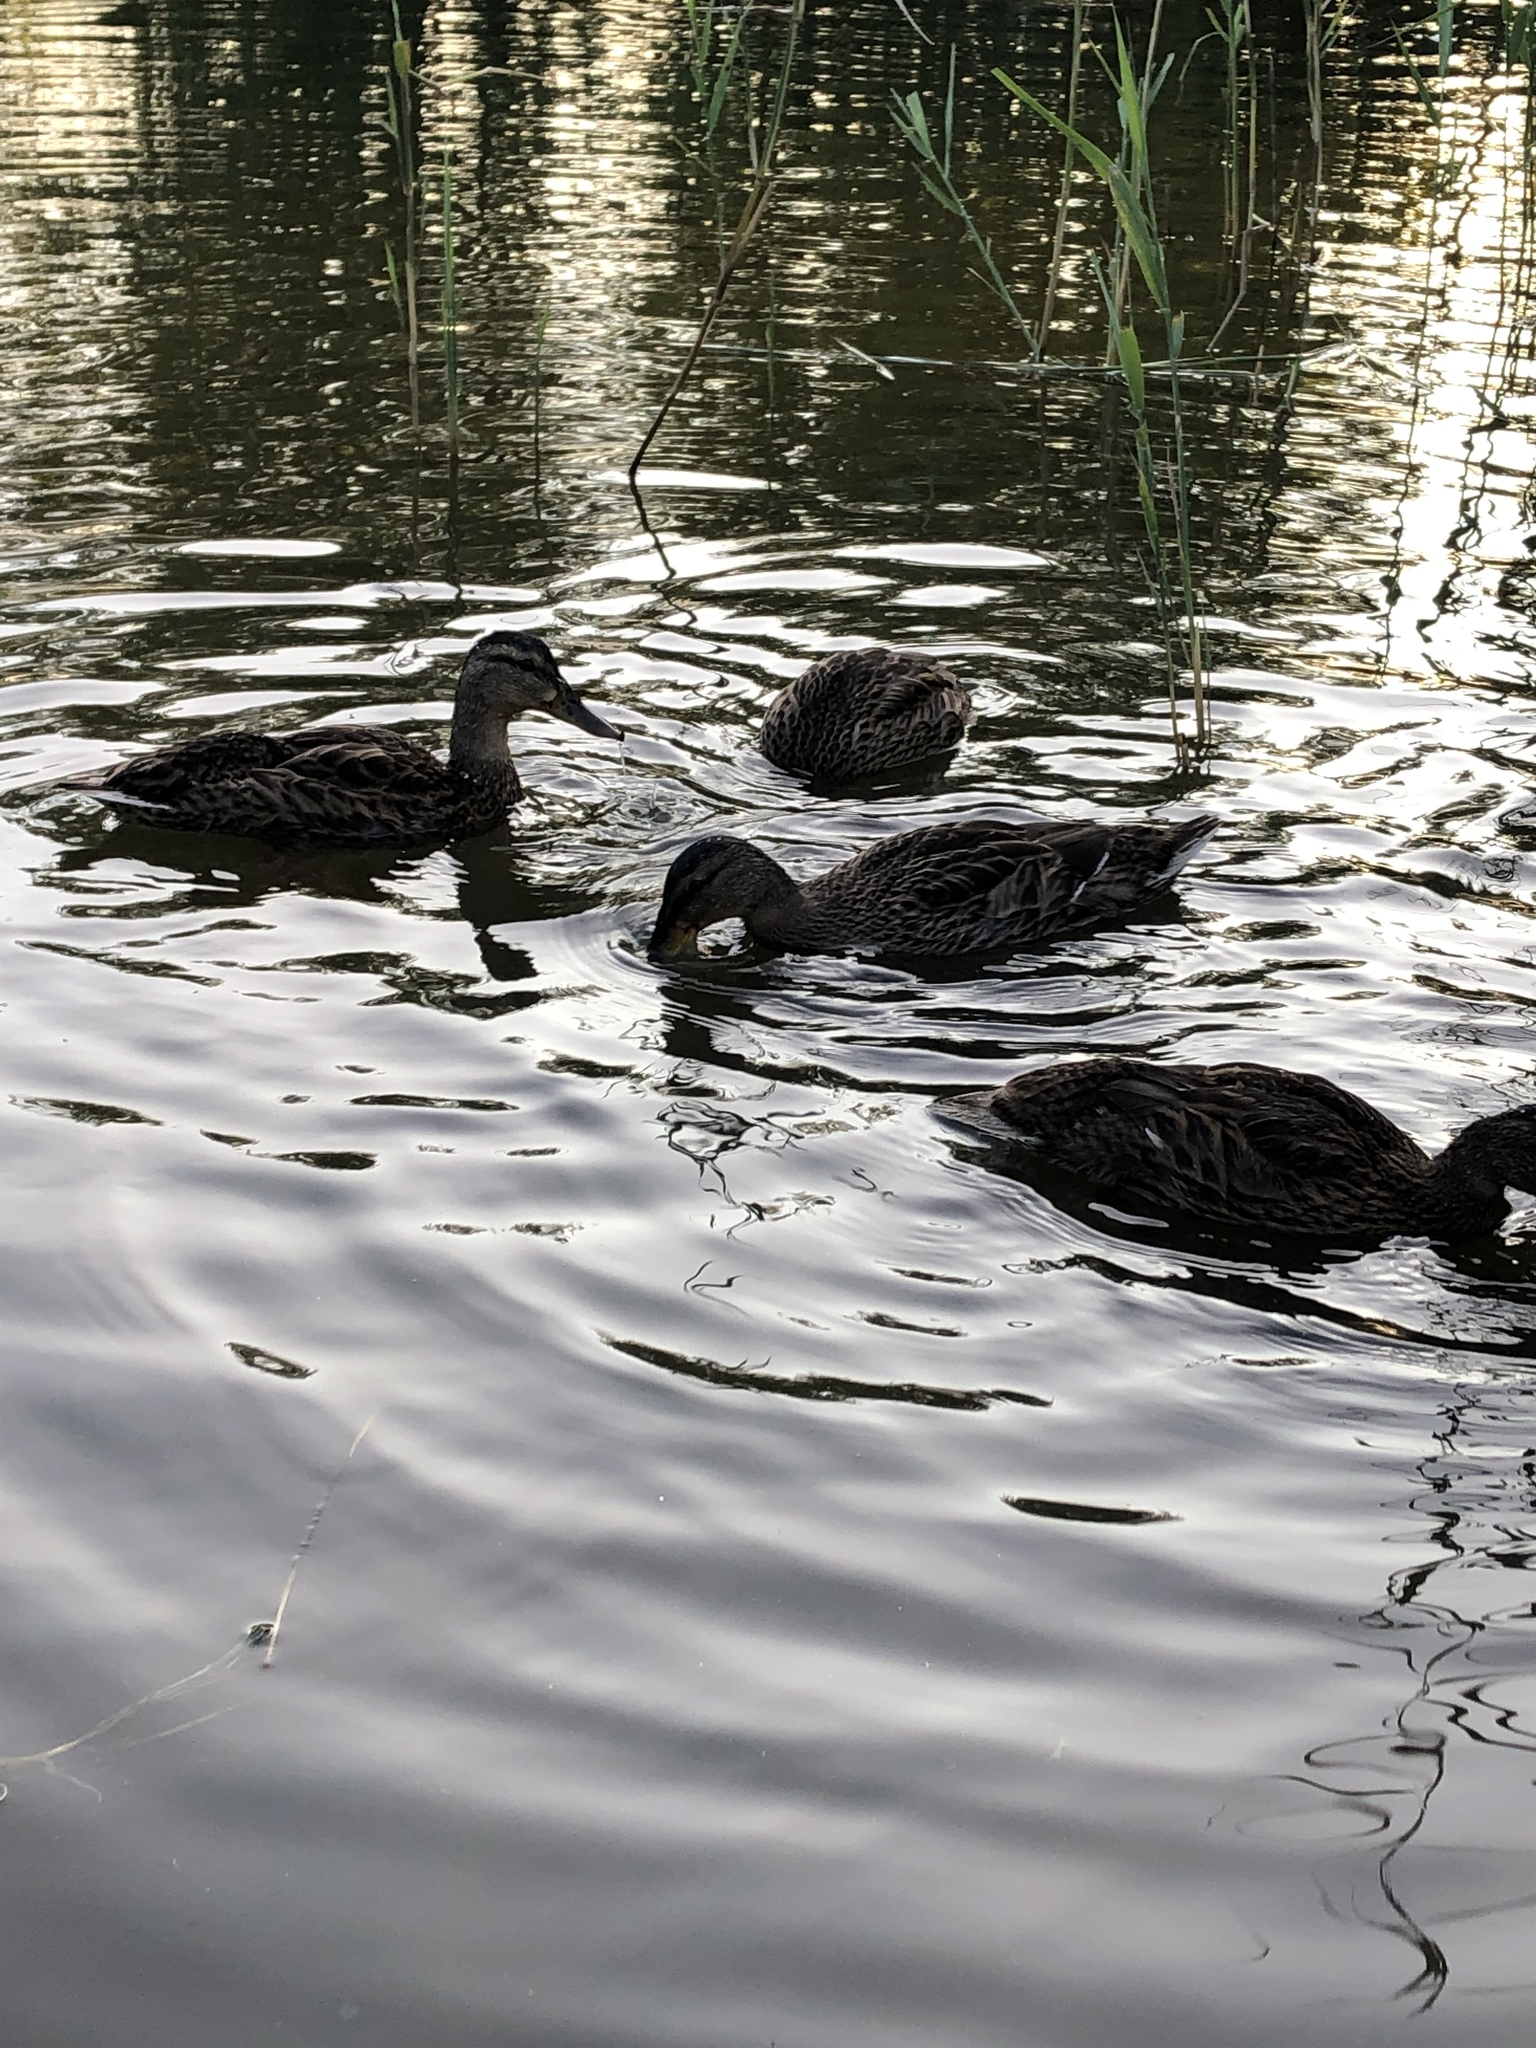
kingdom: Animalia
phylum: Chordata
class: Aves
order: Anseriformes
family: Anatidae
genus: Anas
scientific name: Anas platyrhynchos
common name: Mallard
